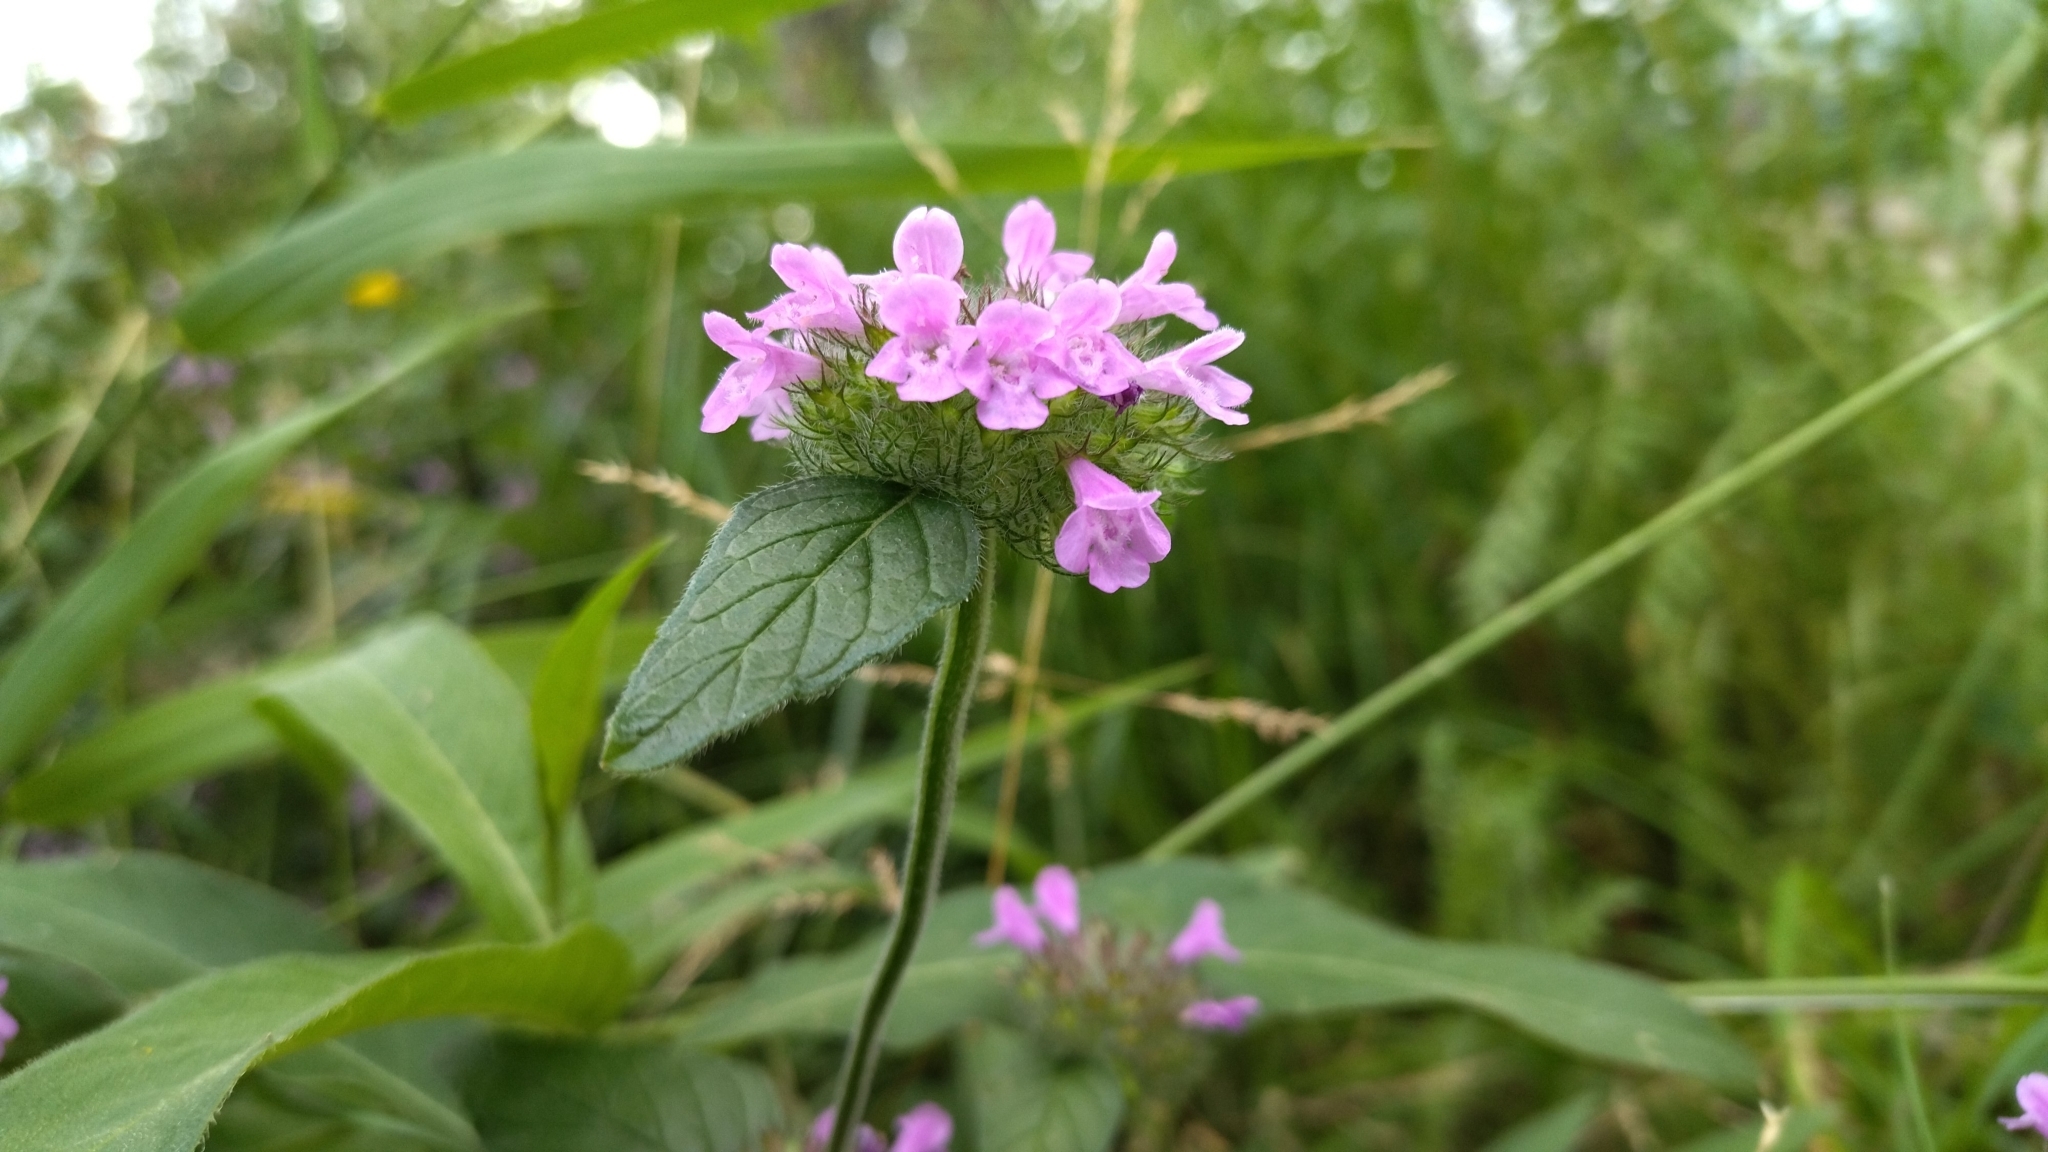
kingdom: Plantae
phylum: Tracheophyta
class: Magnoliopsida
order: Lamiales
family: Lamiaceae
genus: Clinopodium
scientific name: Clinopodium vulgare
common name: Wild basil
